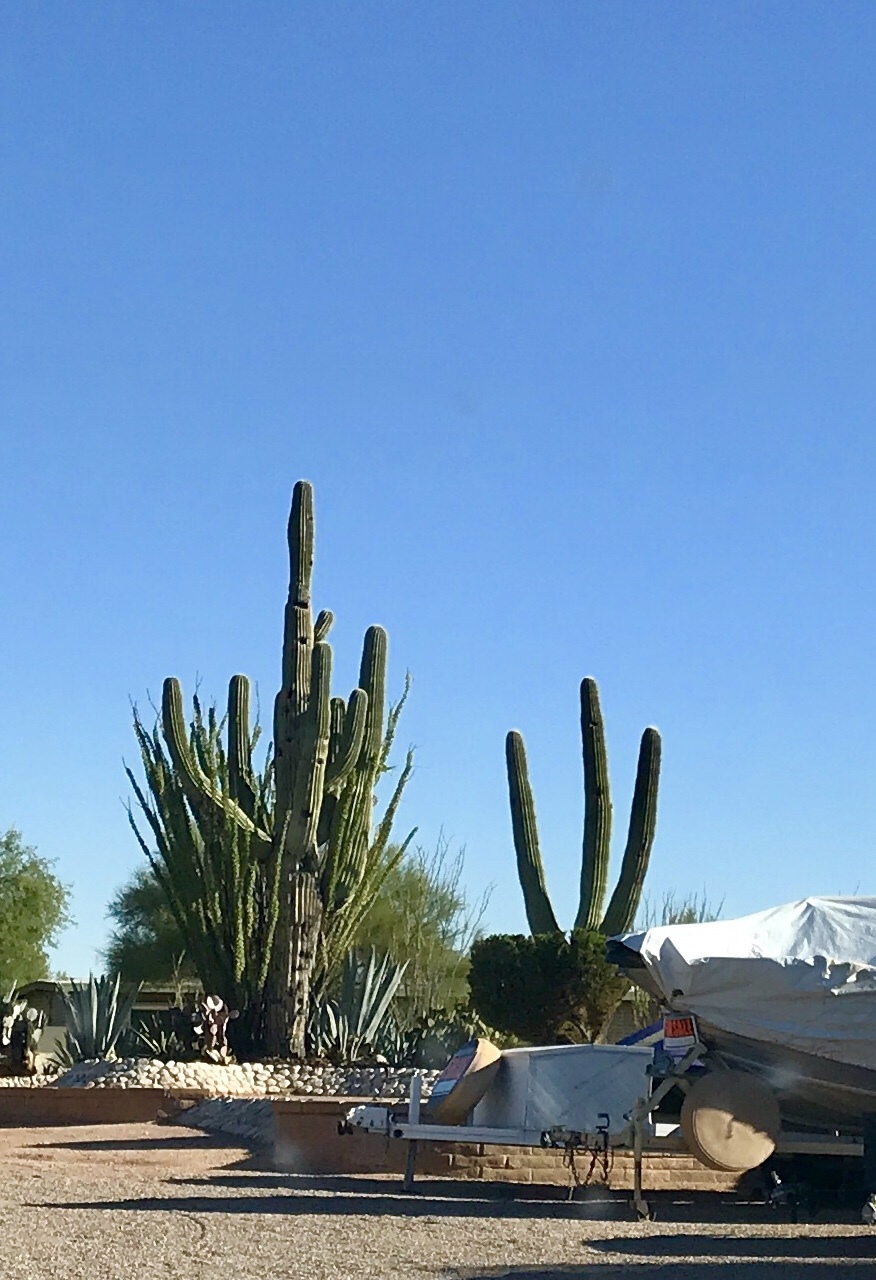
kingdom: Plantae
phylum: Tracheophyta
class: Magnoliopsida
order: Caryophyllales
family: Cactaceae
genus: Carnegiea
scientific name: Carnegiea gigantea
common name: Saguaro
